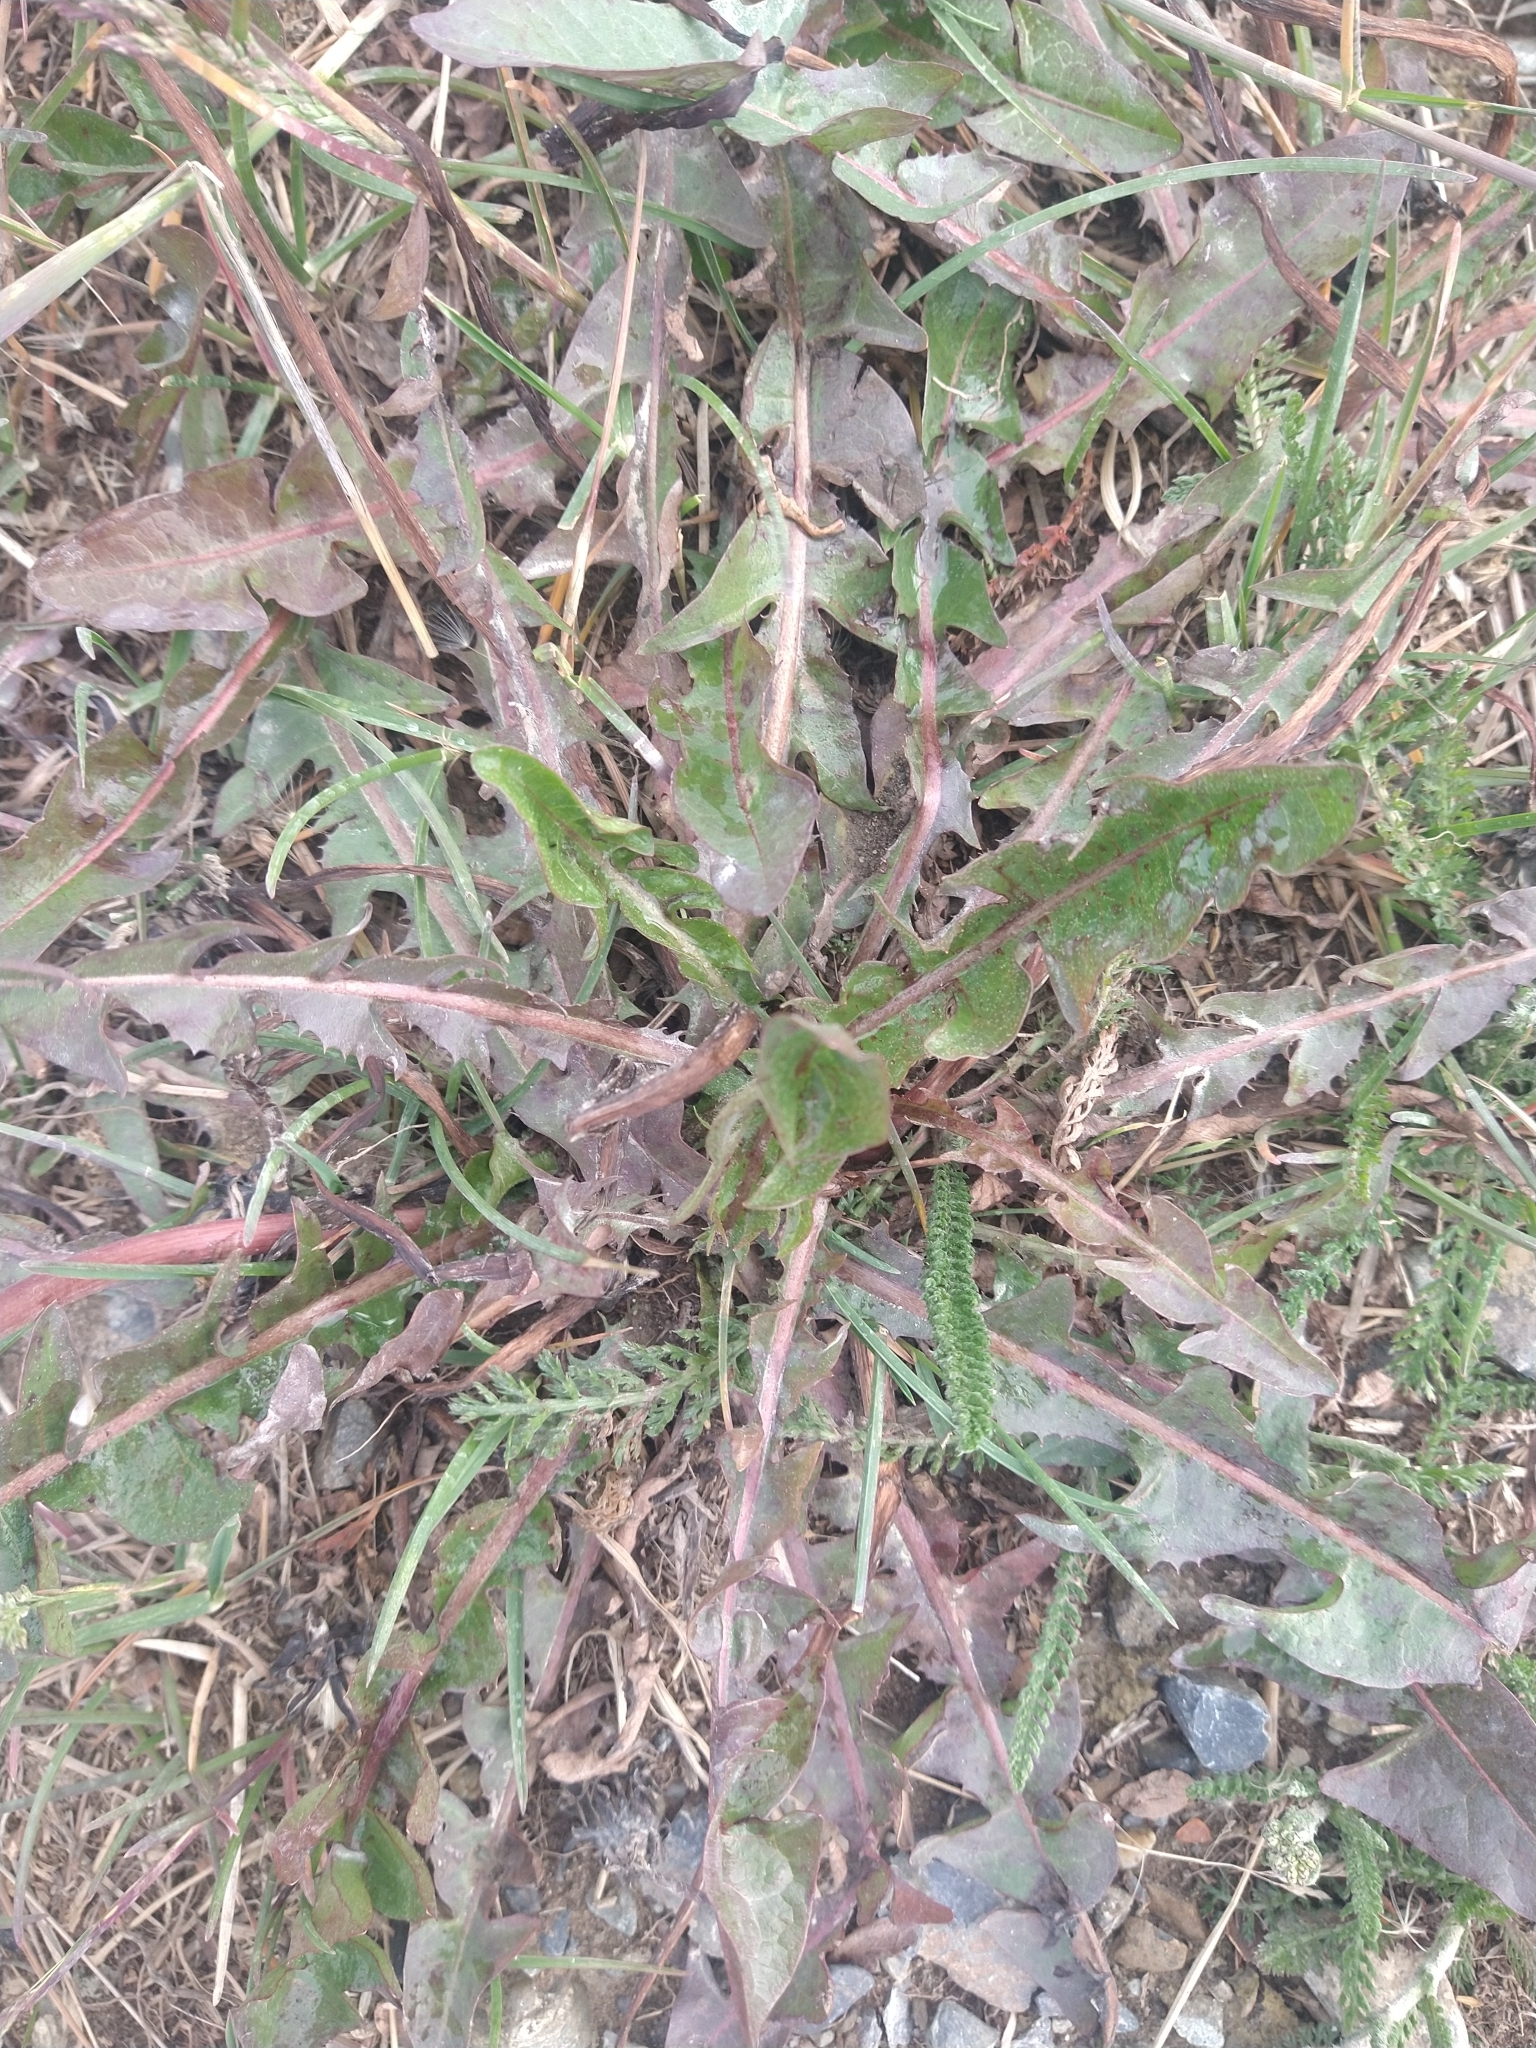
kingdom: Plantae
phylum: Tracheophyta
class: Magnoliopsida
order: Asterales
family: Asteraceae
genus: Taraxacum
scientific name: Taraxacum officinale
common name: Common dandelion
